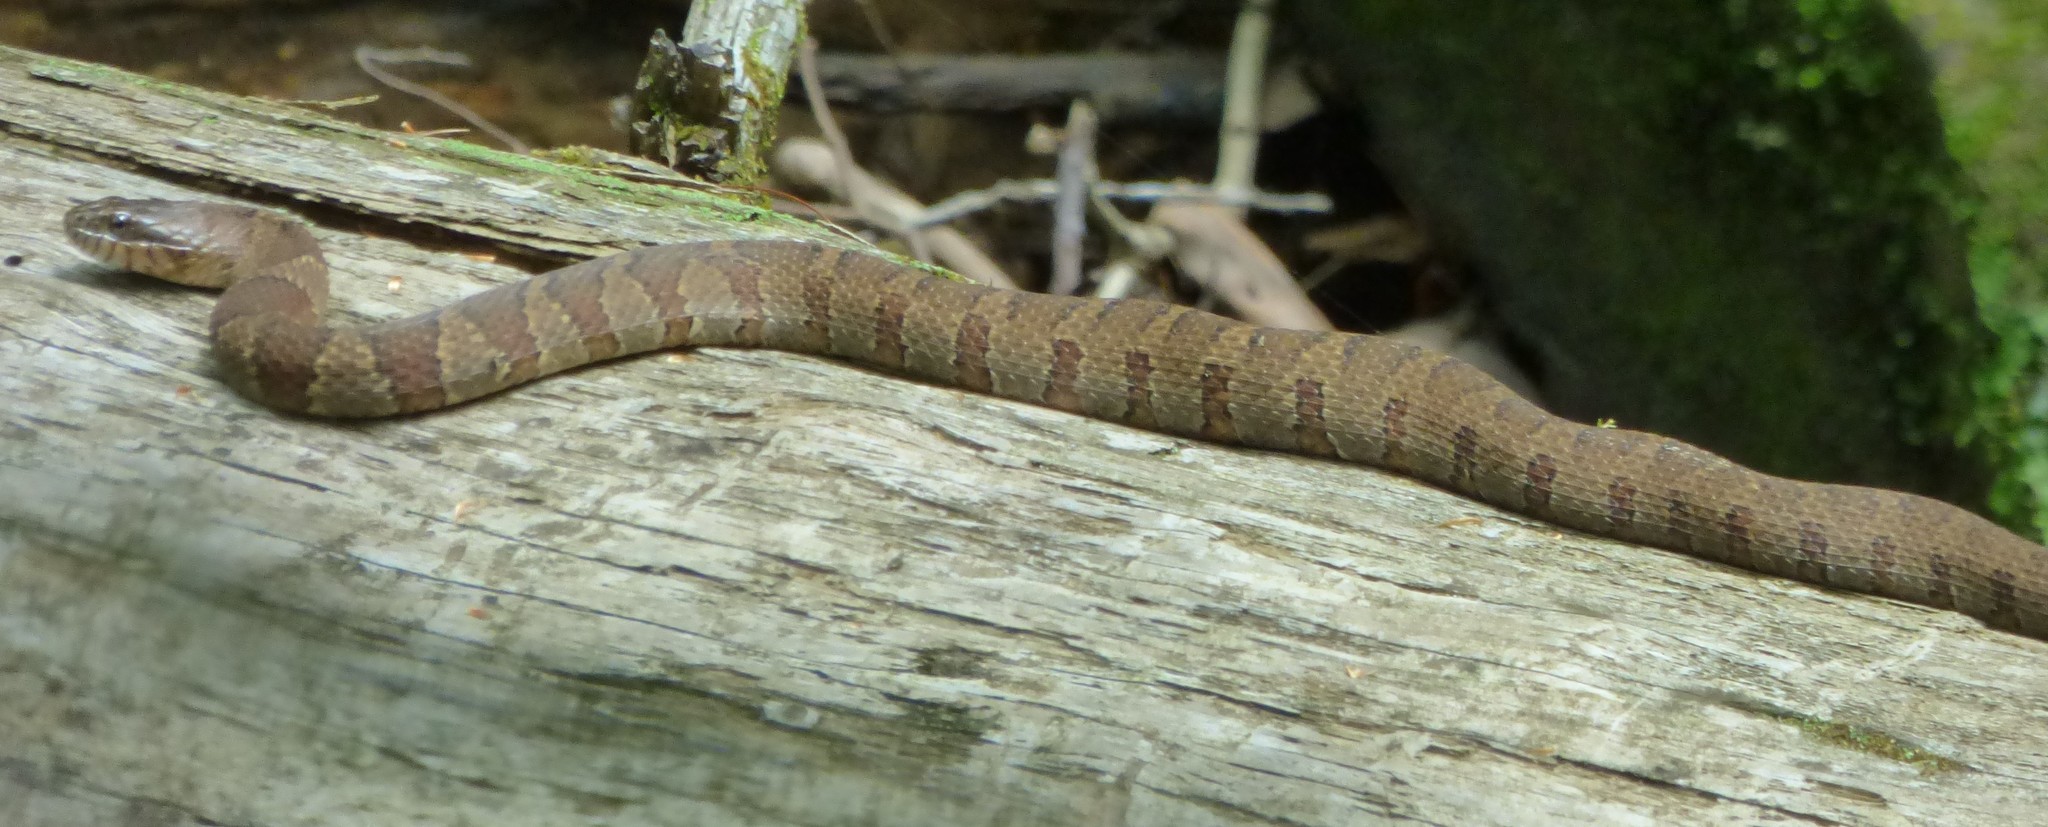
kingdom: Animalia
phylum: Chordata
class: Squamata
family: Colubridae
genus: Nerodia
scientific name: Nerodia sipedon
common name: Northern water snake
